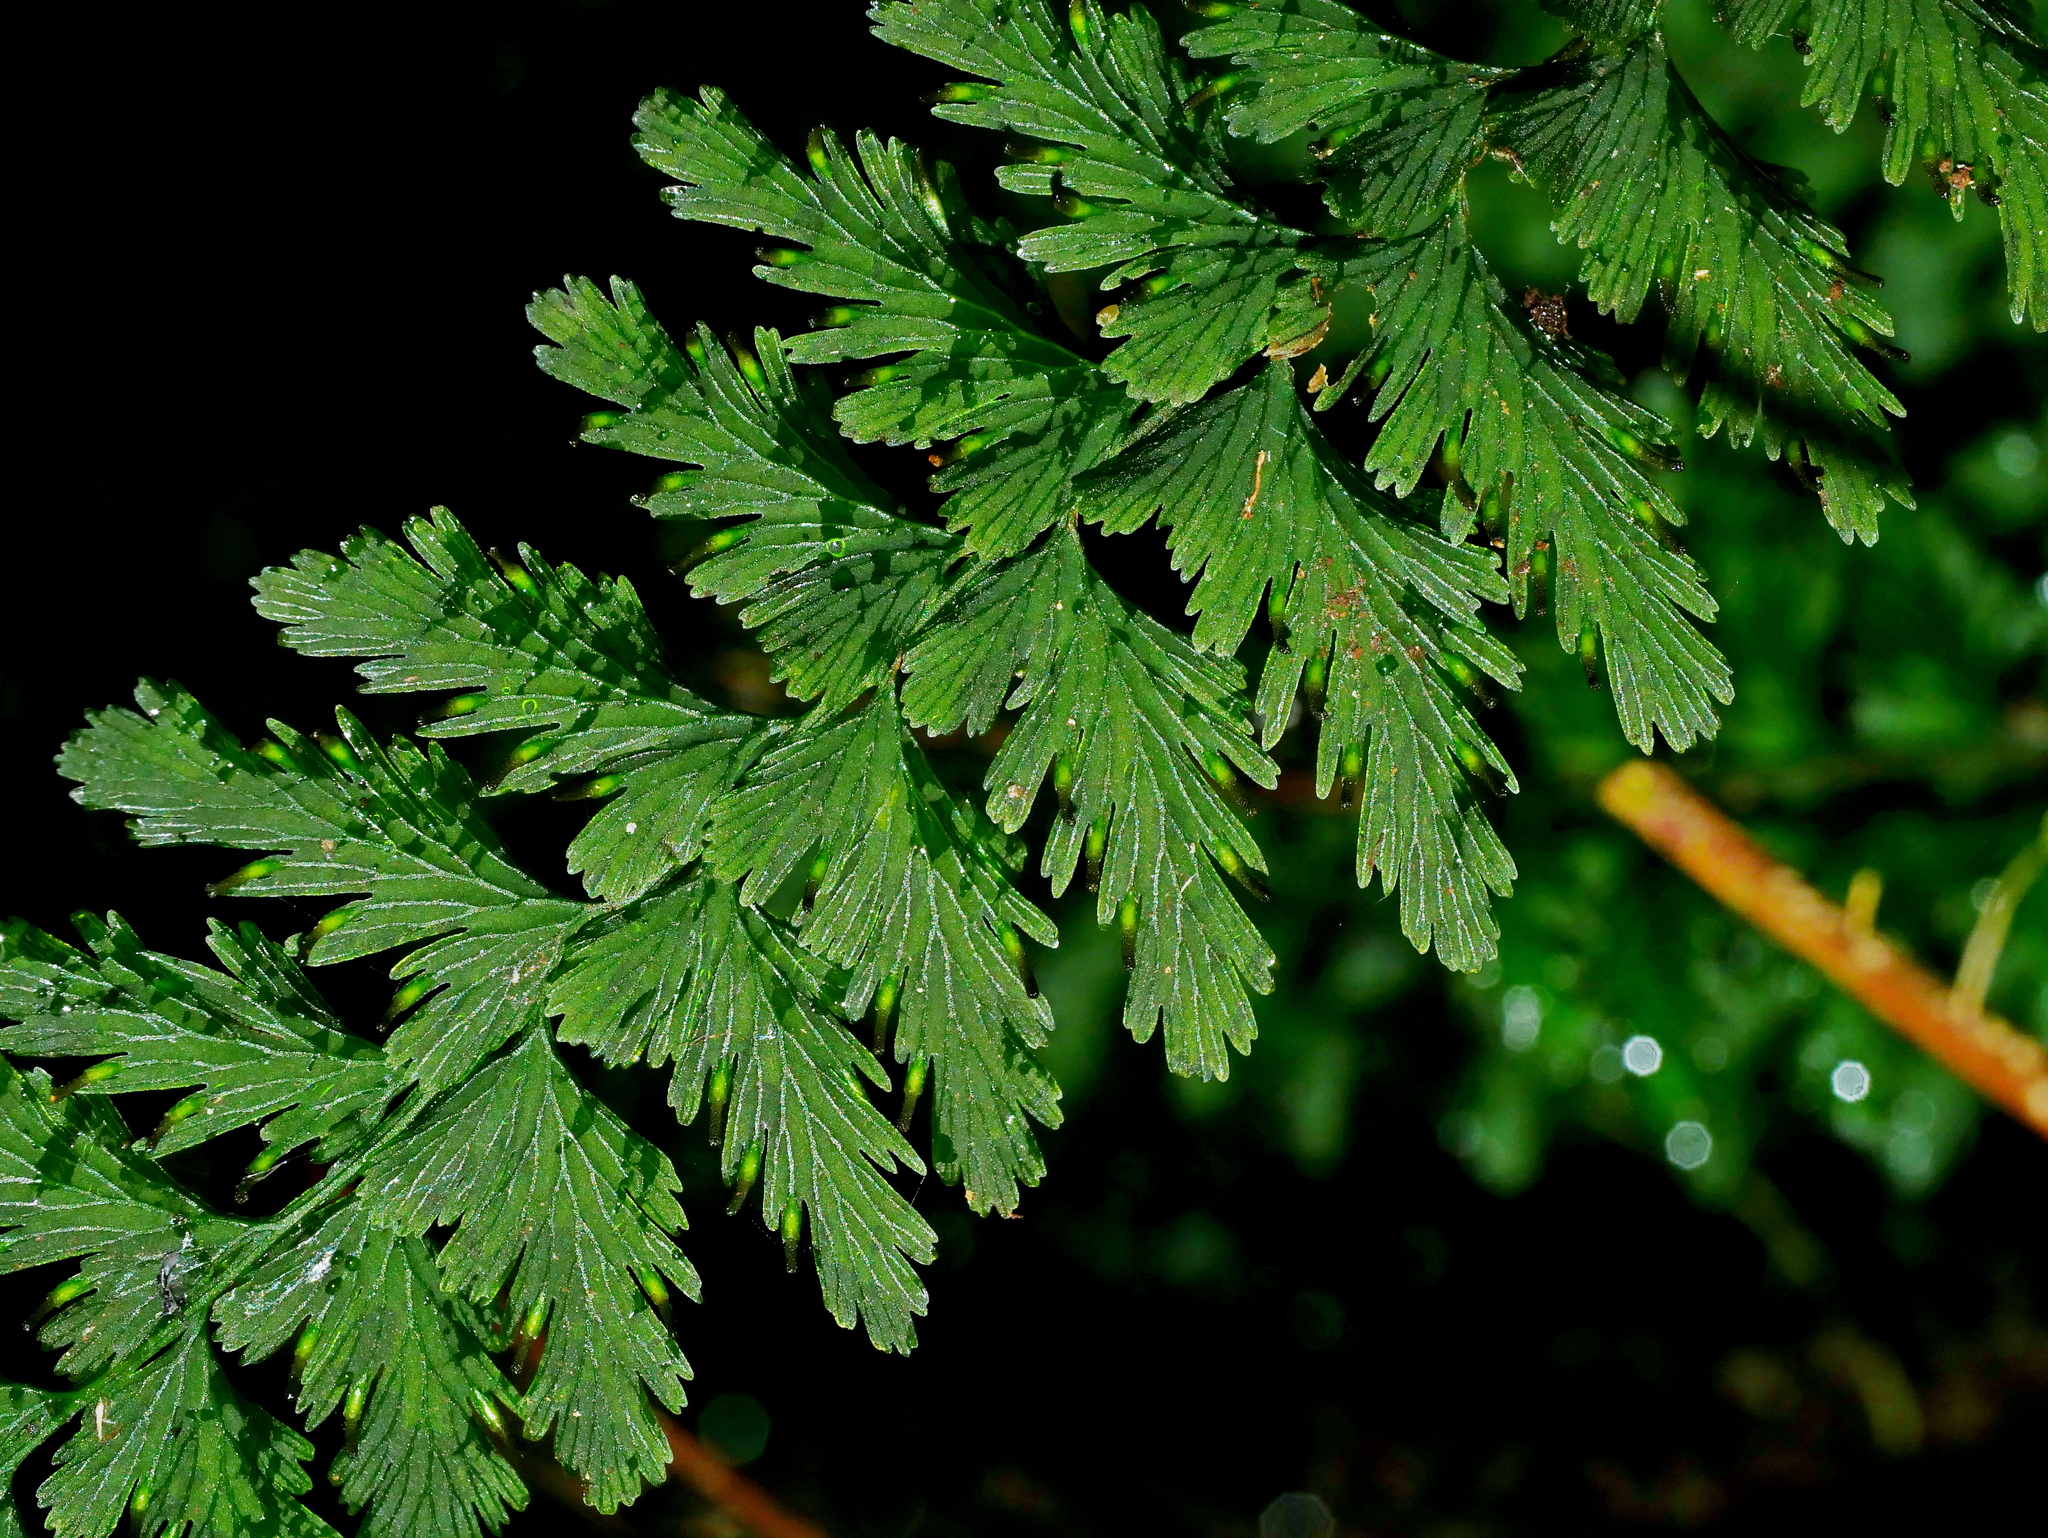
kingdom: Plantae
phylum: Tracheophyta
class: Polypodiopsida
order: Hymenophyllales
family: Hymenophyllaceae
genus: Vandenboschia
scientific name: Vandenboschia auriculata
